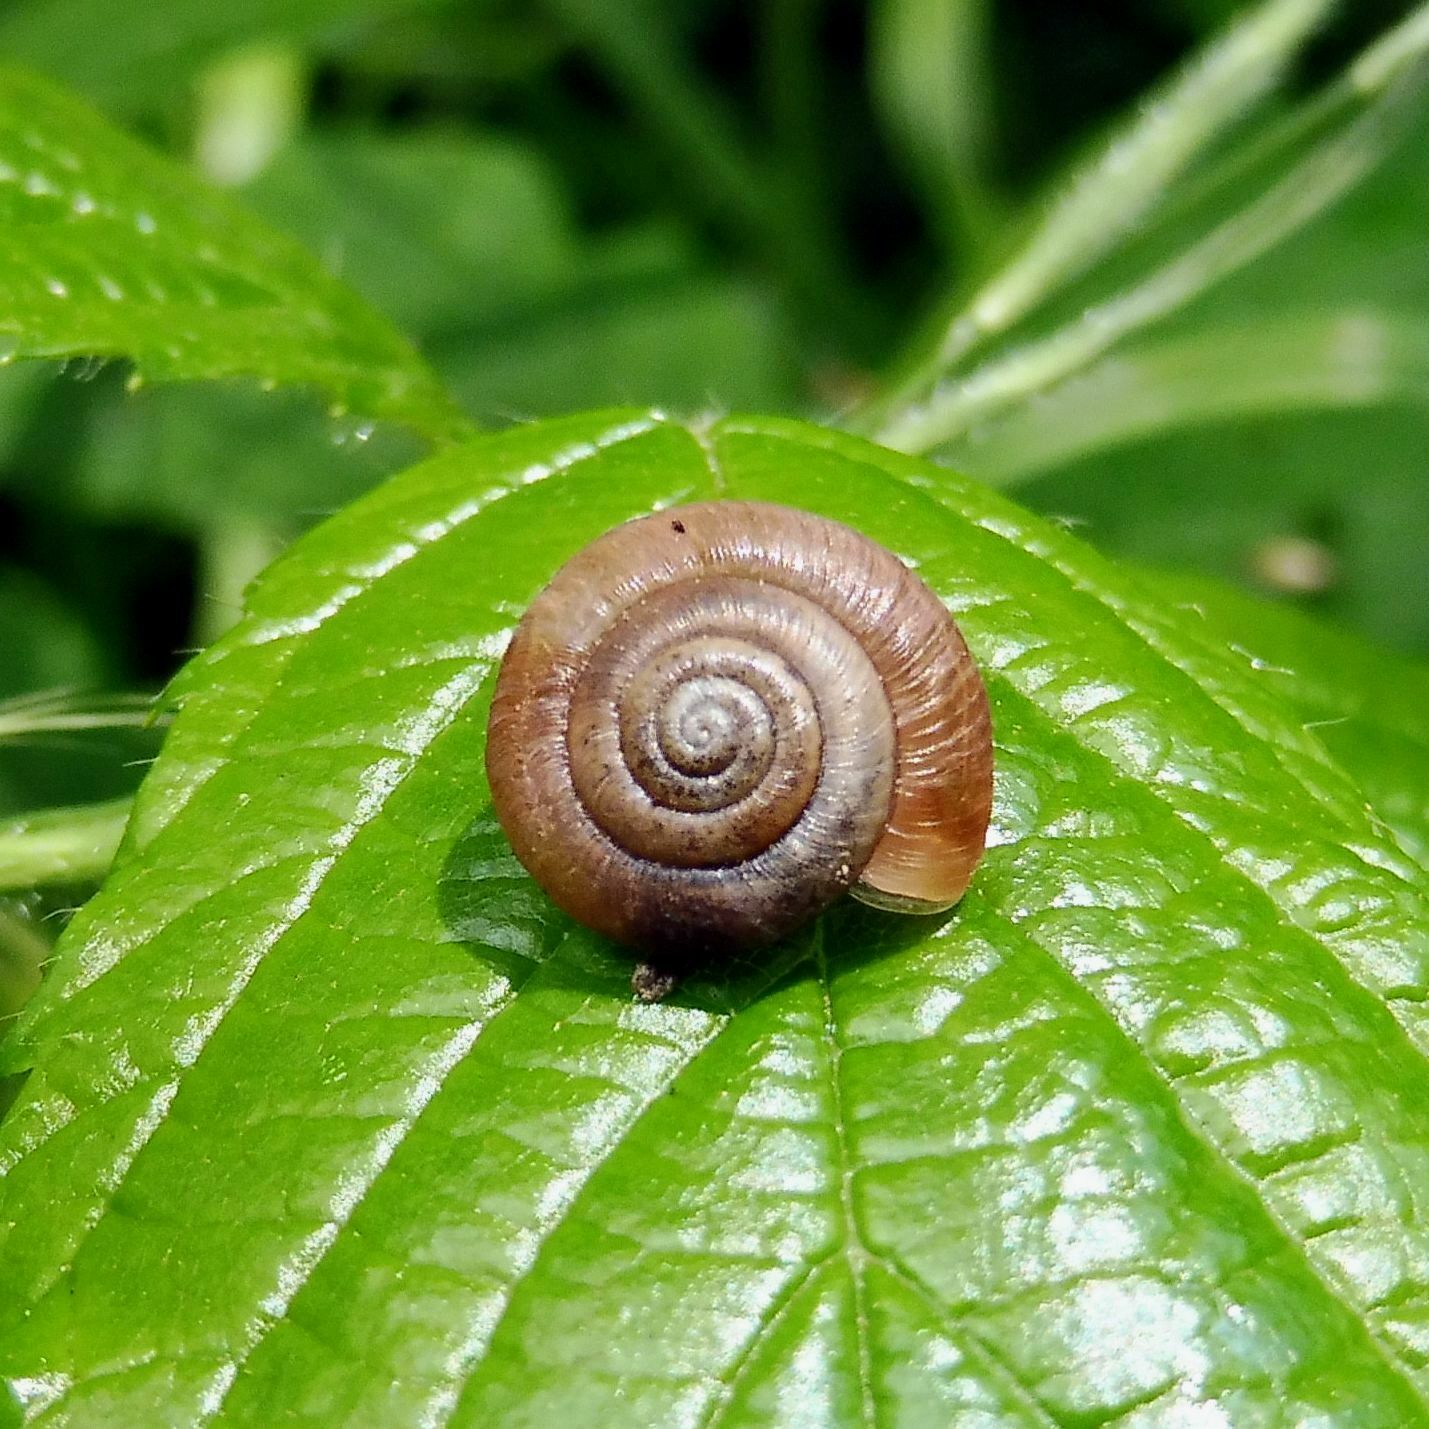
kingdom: Animalia
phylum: Mollusca
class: Gastropoda
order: Stylommatophora
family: Hygromiidae
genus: Trochulus
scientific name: Trochulus striolatus
